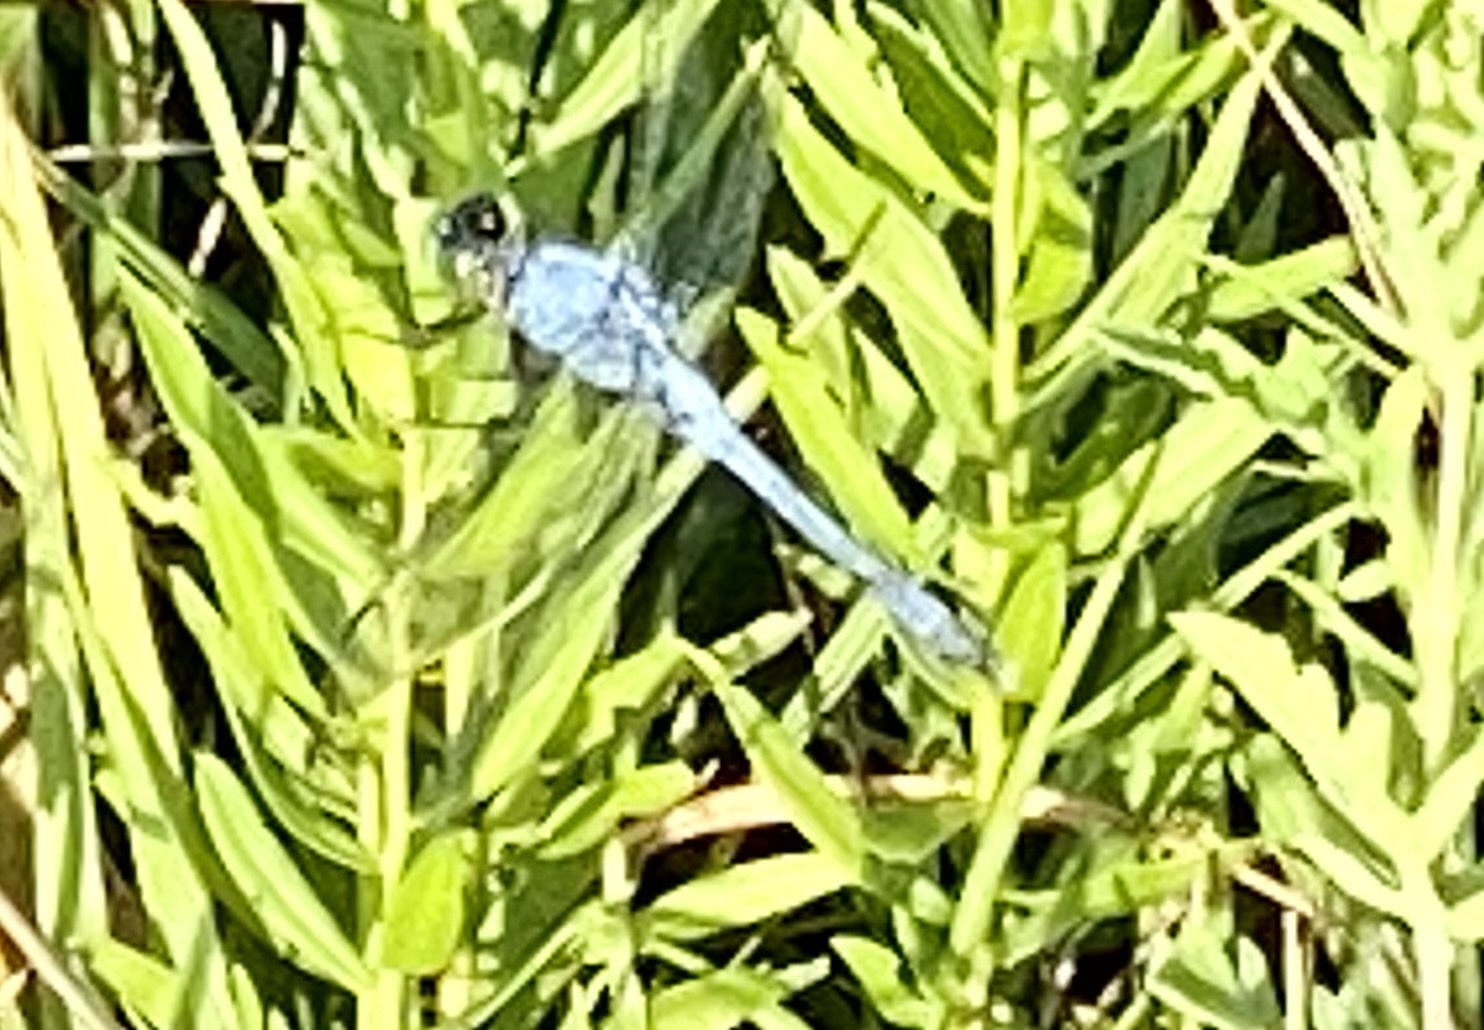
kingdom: Animalia
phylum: Arthropoda
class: Insecta
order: Odonata
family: Libellulidae
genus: Erythemis
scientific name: Erythemis simplicicollis
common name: Eastern pondhawk
